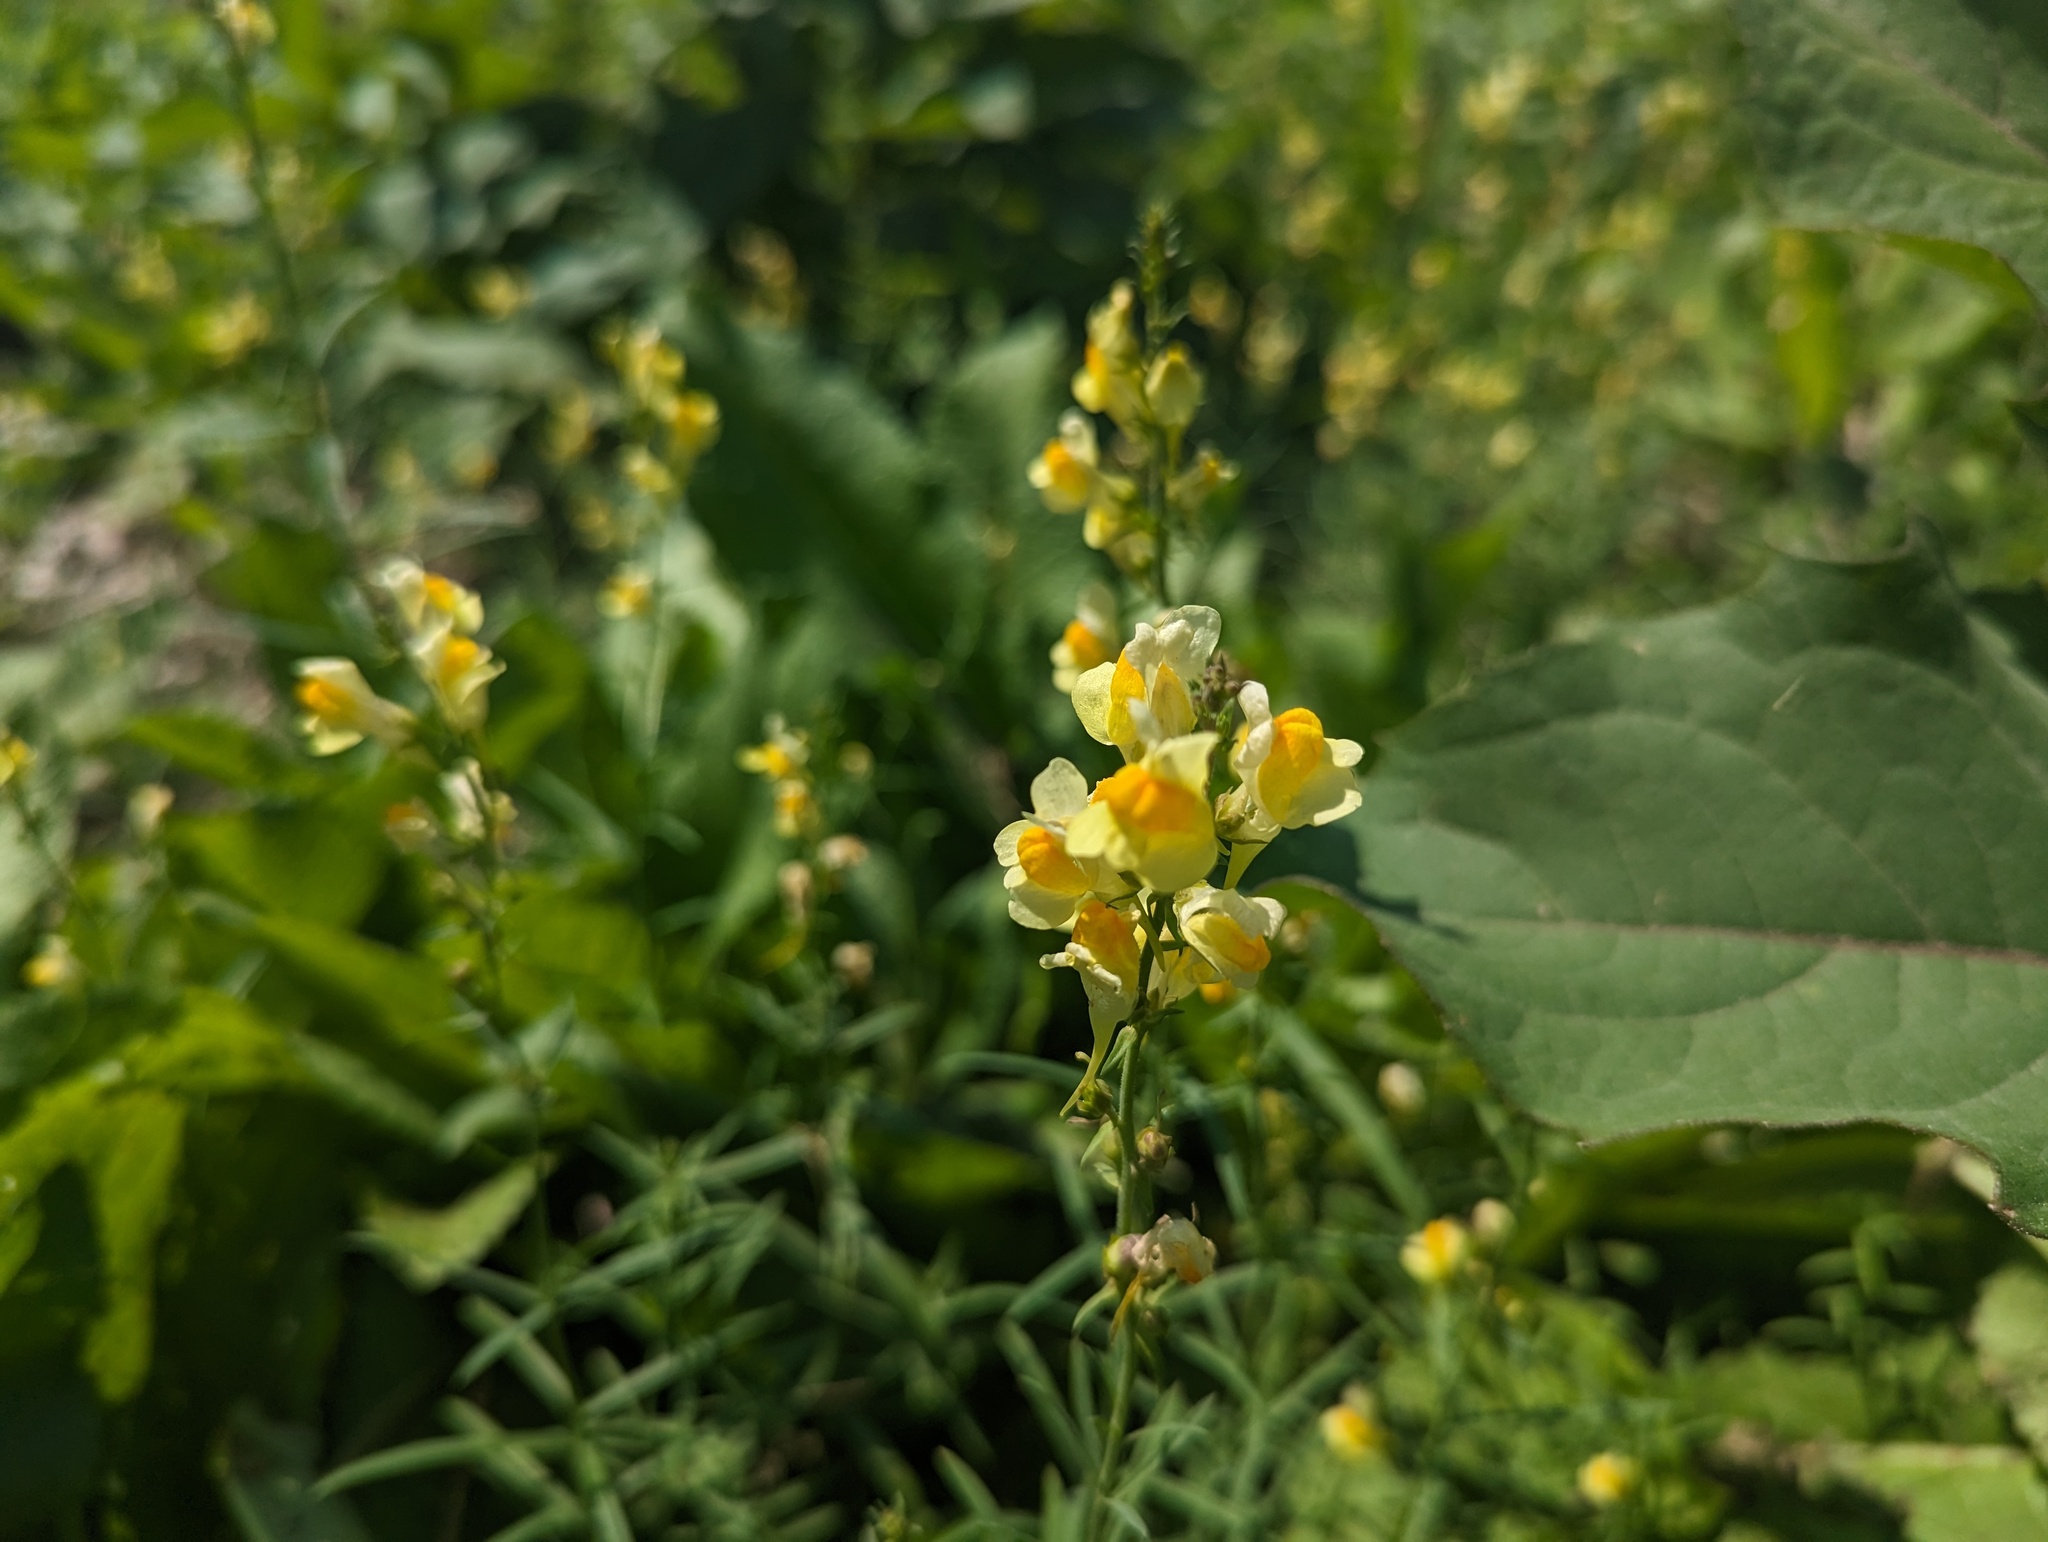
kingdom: Plantae
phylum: Tracheophyta
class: Magnoliopsida
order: Lamiales
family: Plantaginaceae
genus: Linaria
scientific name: Linaria vulgaris
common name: Butter and eggs
